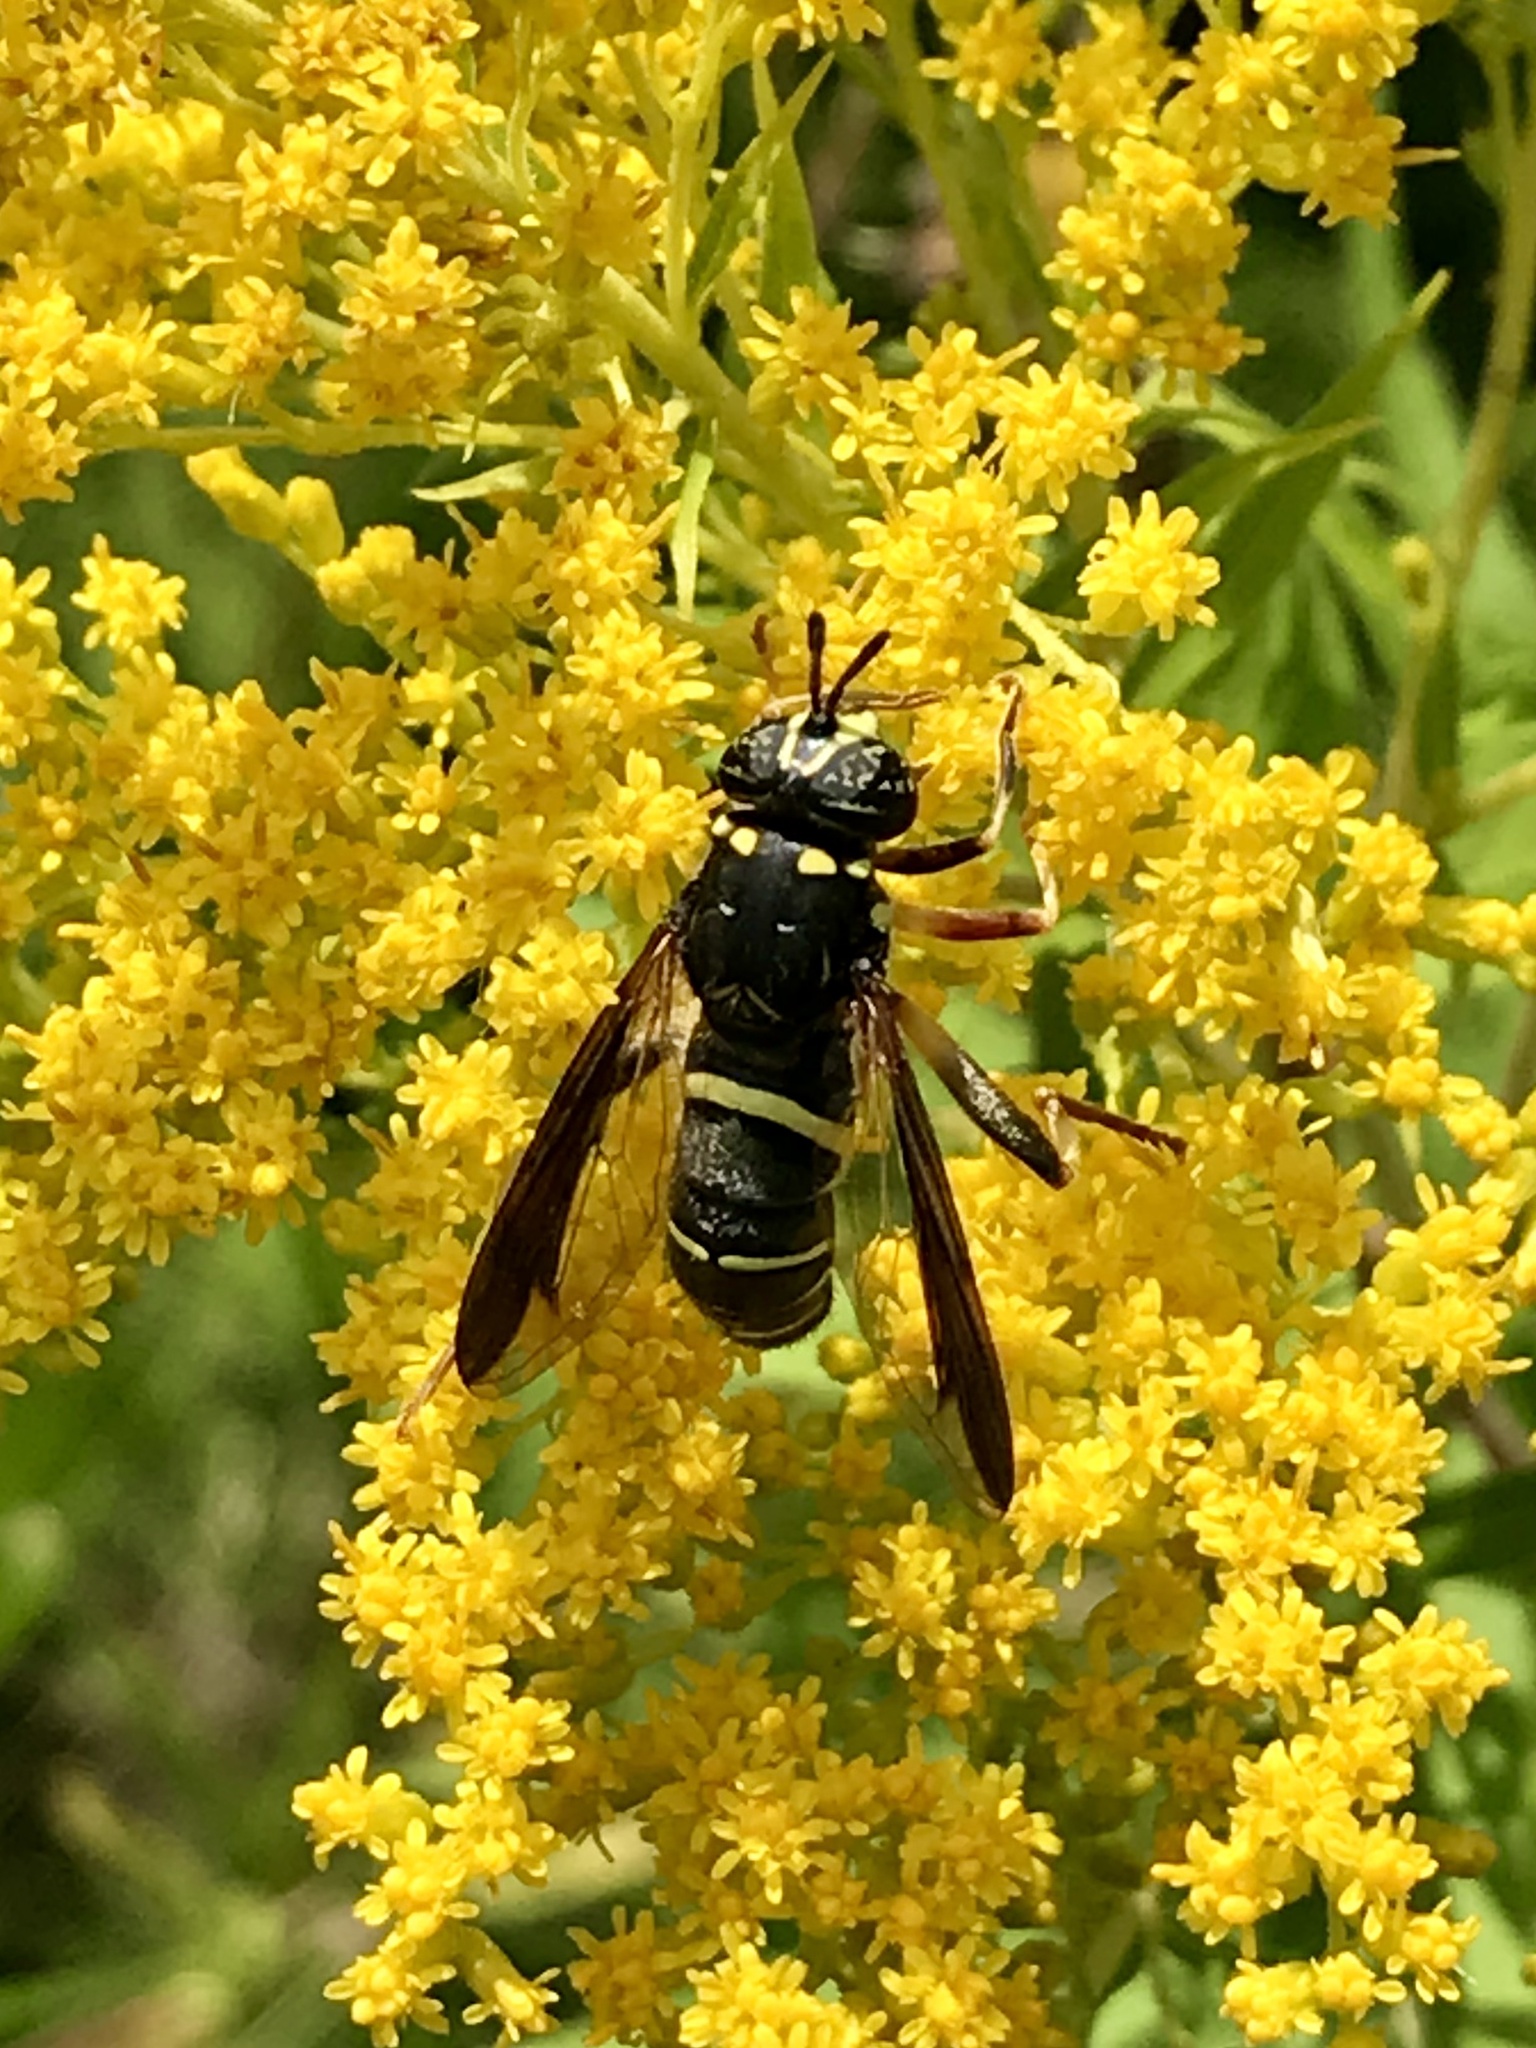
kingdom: Animalia
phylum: Arthropoda
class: Insecta
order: Diptera
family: Syrphidae
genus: Spilomyia
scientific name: Spilomyia sayi
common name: Four-lined hornet fly
